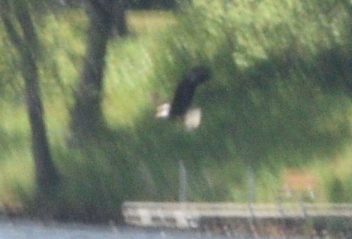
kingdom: Animalia
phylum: Chordata
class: Aves
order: Accipitriformes
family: Accipitridae
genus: Haliaeetus
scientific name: Haliaeetus leucocephalus
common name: Bald eagle
